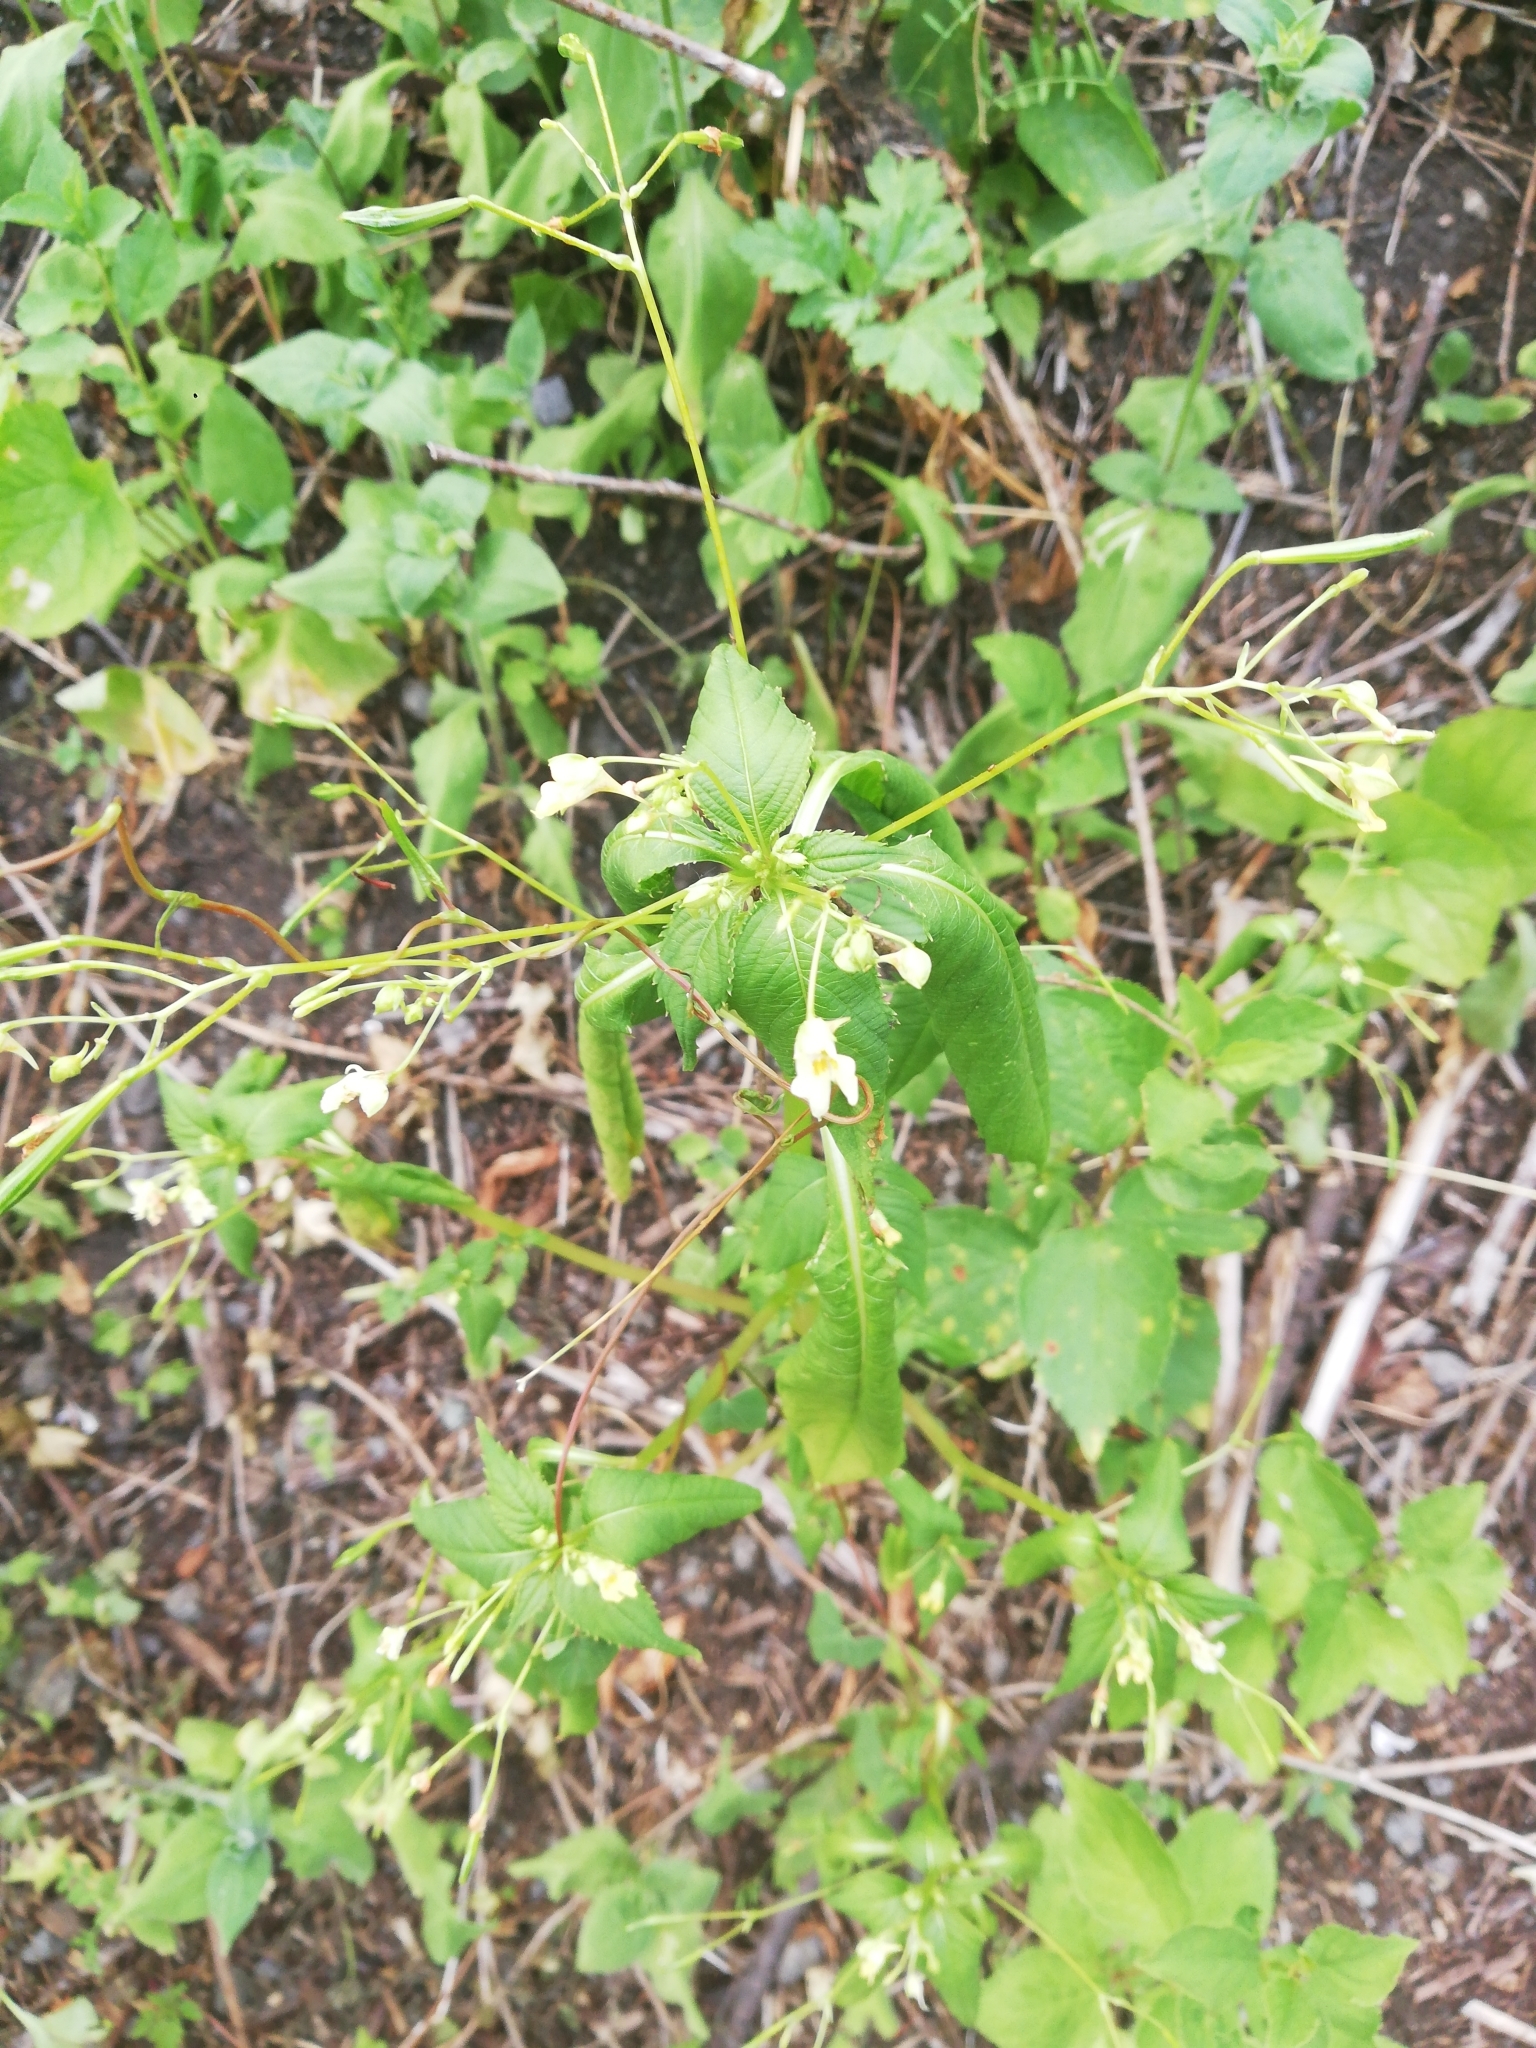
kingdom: Plantae
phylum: Tracheophyta
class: Magnoliopsida
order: Ericales
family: Balsaminaceae
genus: Impatiens
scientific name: Impatiens parviflora
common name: Small balsam
